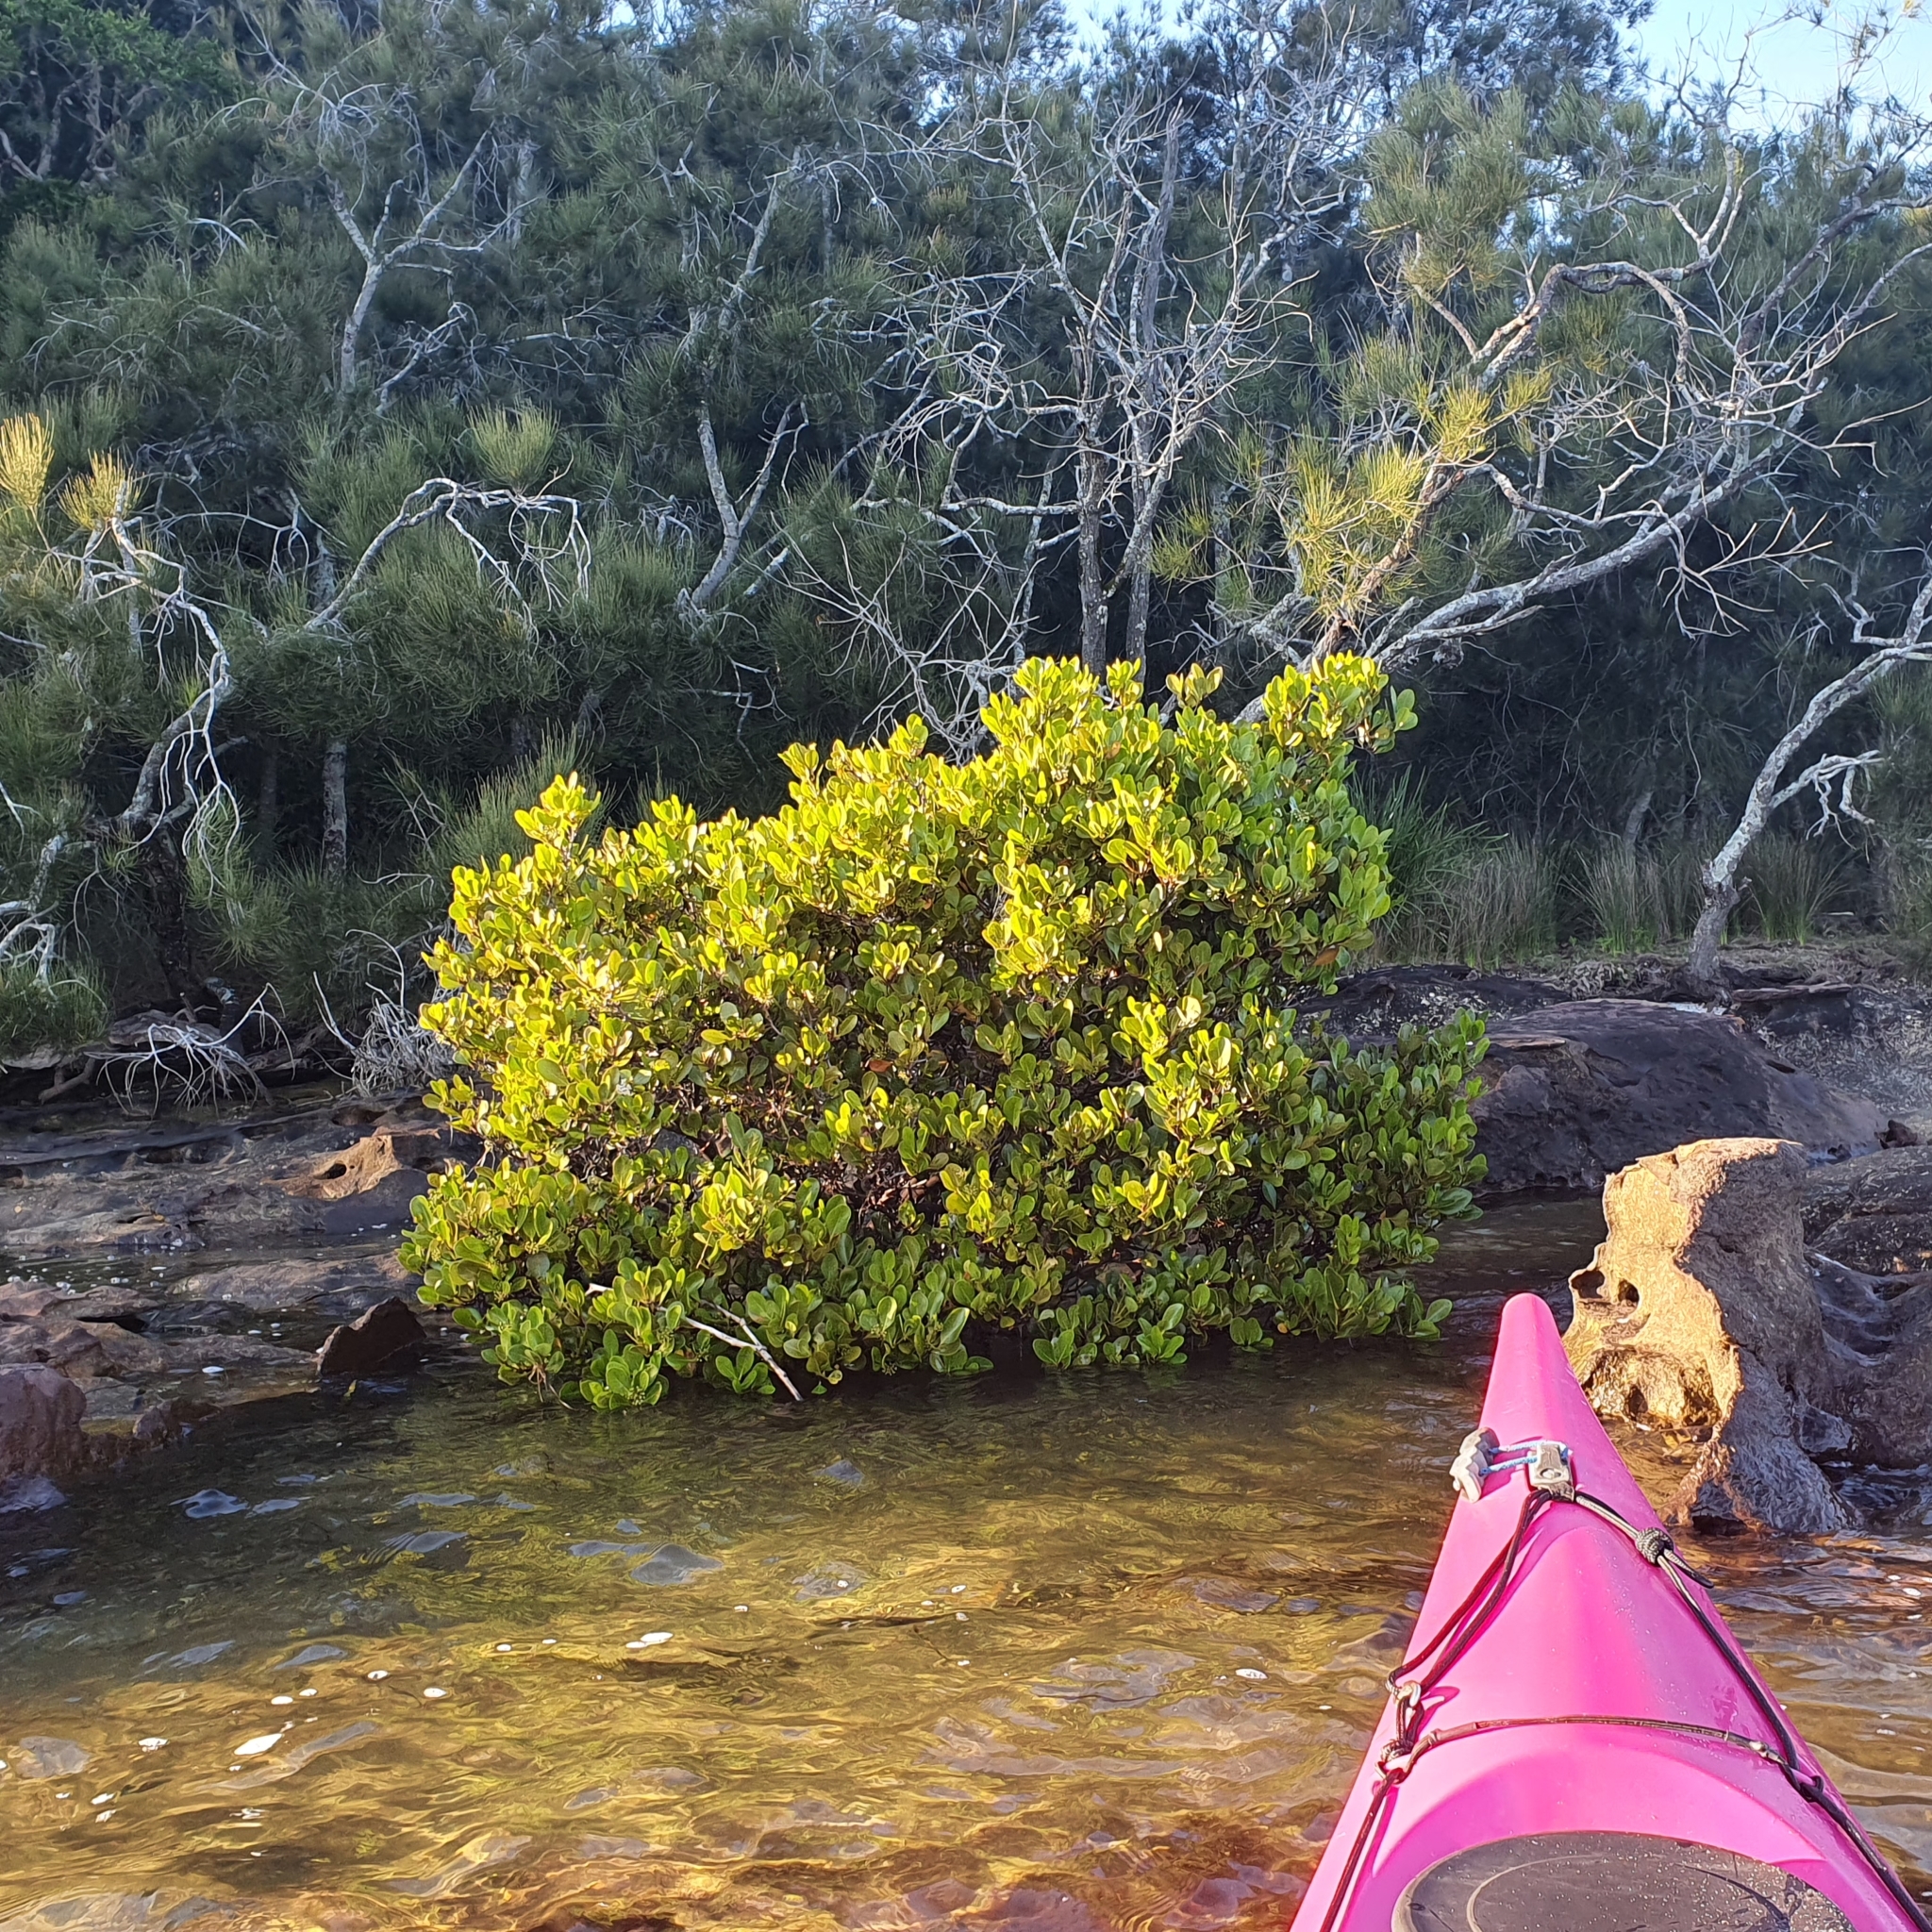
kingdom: Plantae
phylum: Tracheophyta
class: Magnoliopsida
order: Ericales
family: Primulaceae
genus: Aegiceras
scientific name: Aegiceras corniculatum
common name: River mangrove
